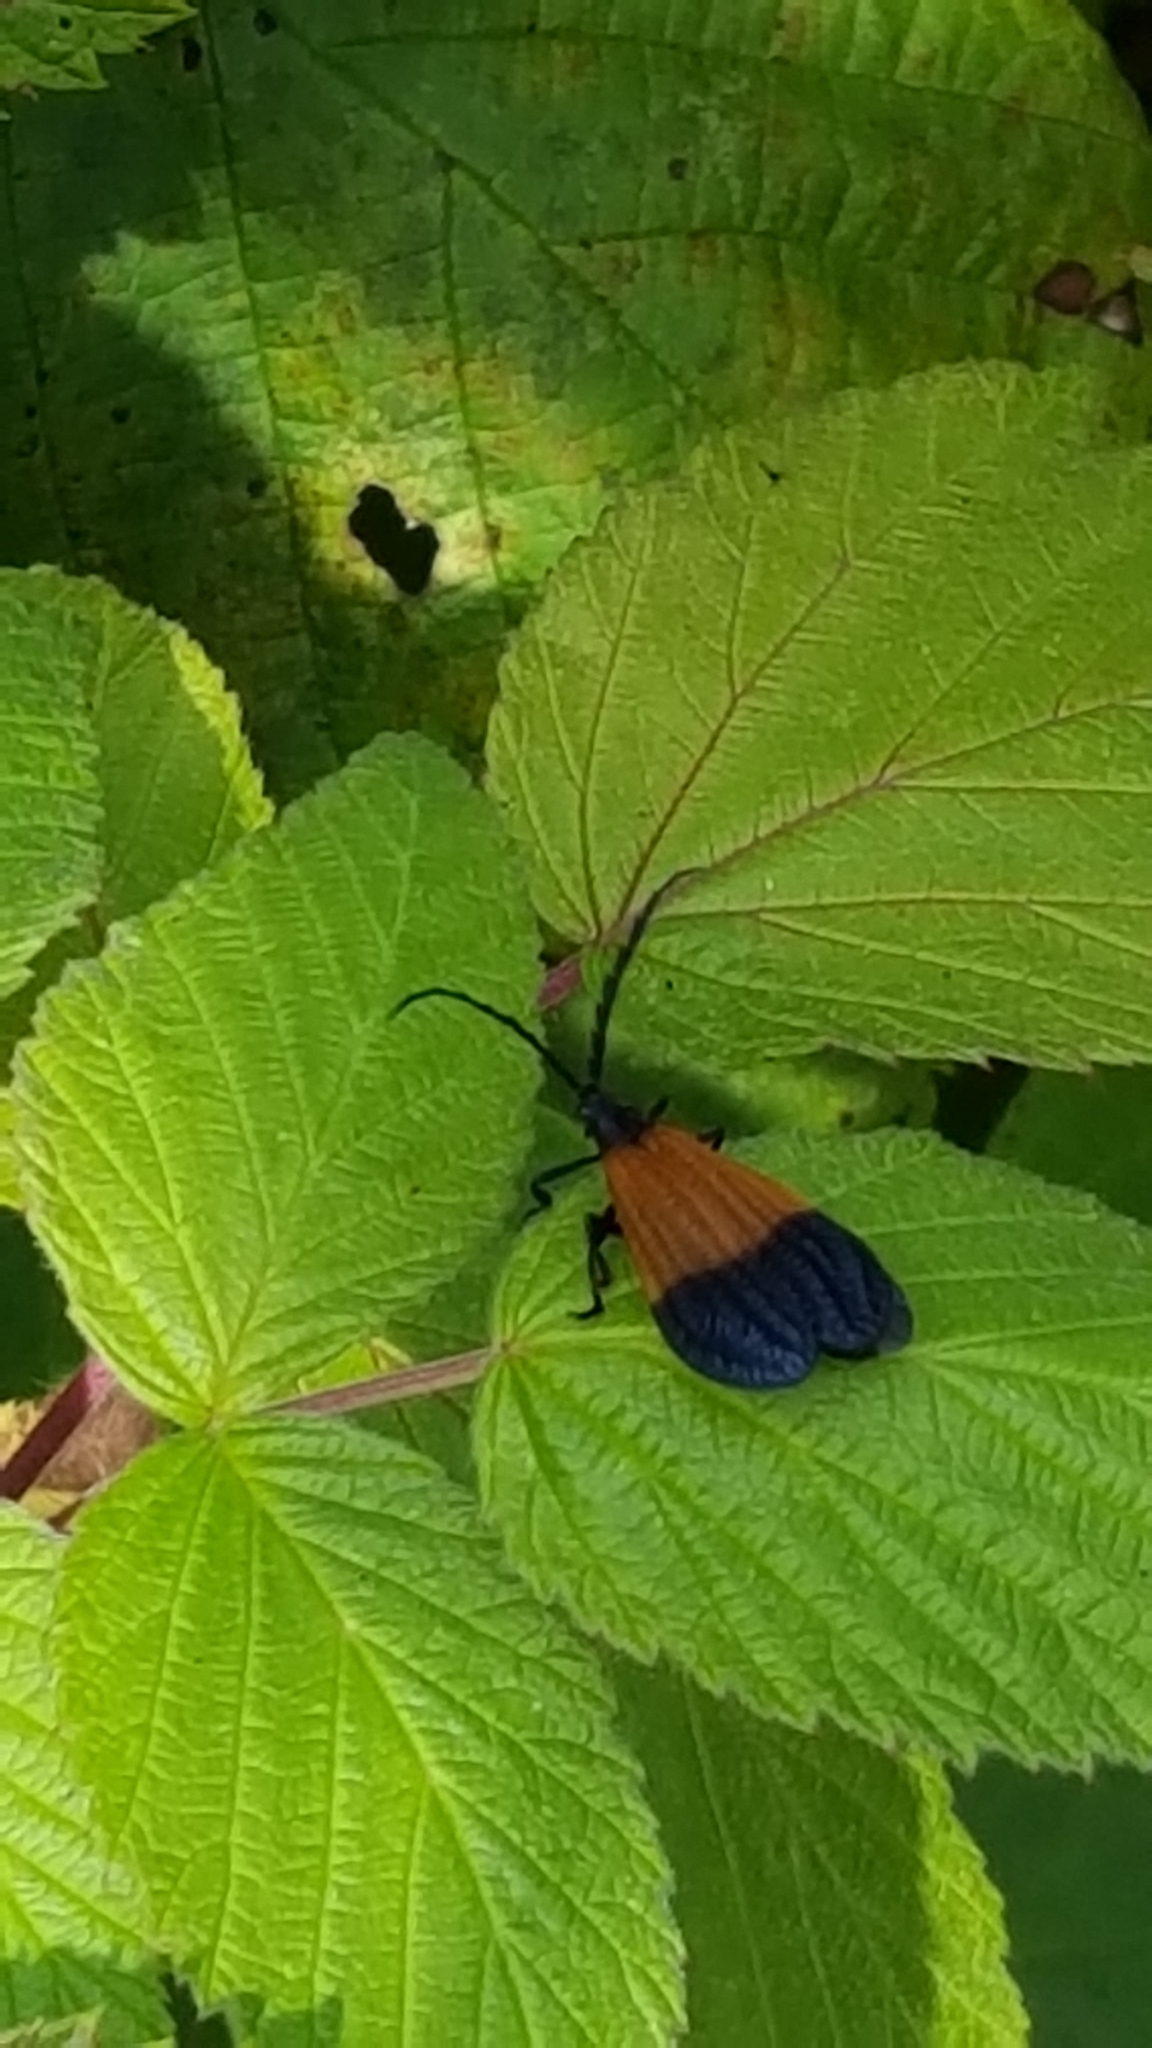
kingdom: Animalia
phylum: Arthropoda
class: Insecta
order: Coleoptera
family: Lycidae
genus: Calopteron
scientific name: Calopteron terminale
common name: End band net-winged beetle
